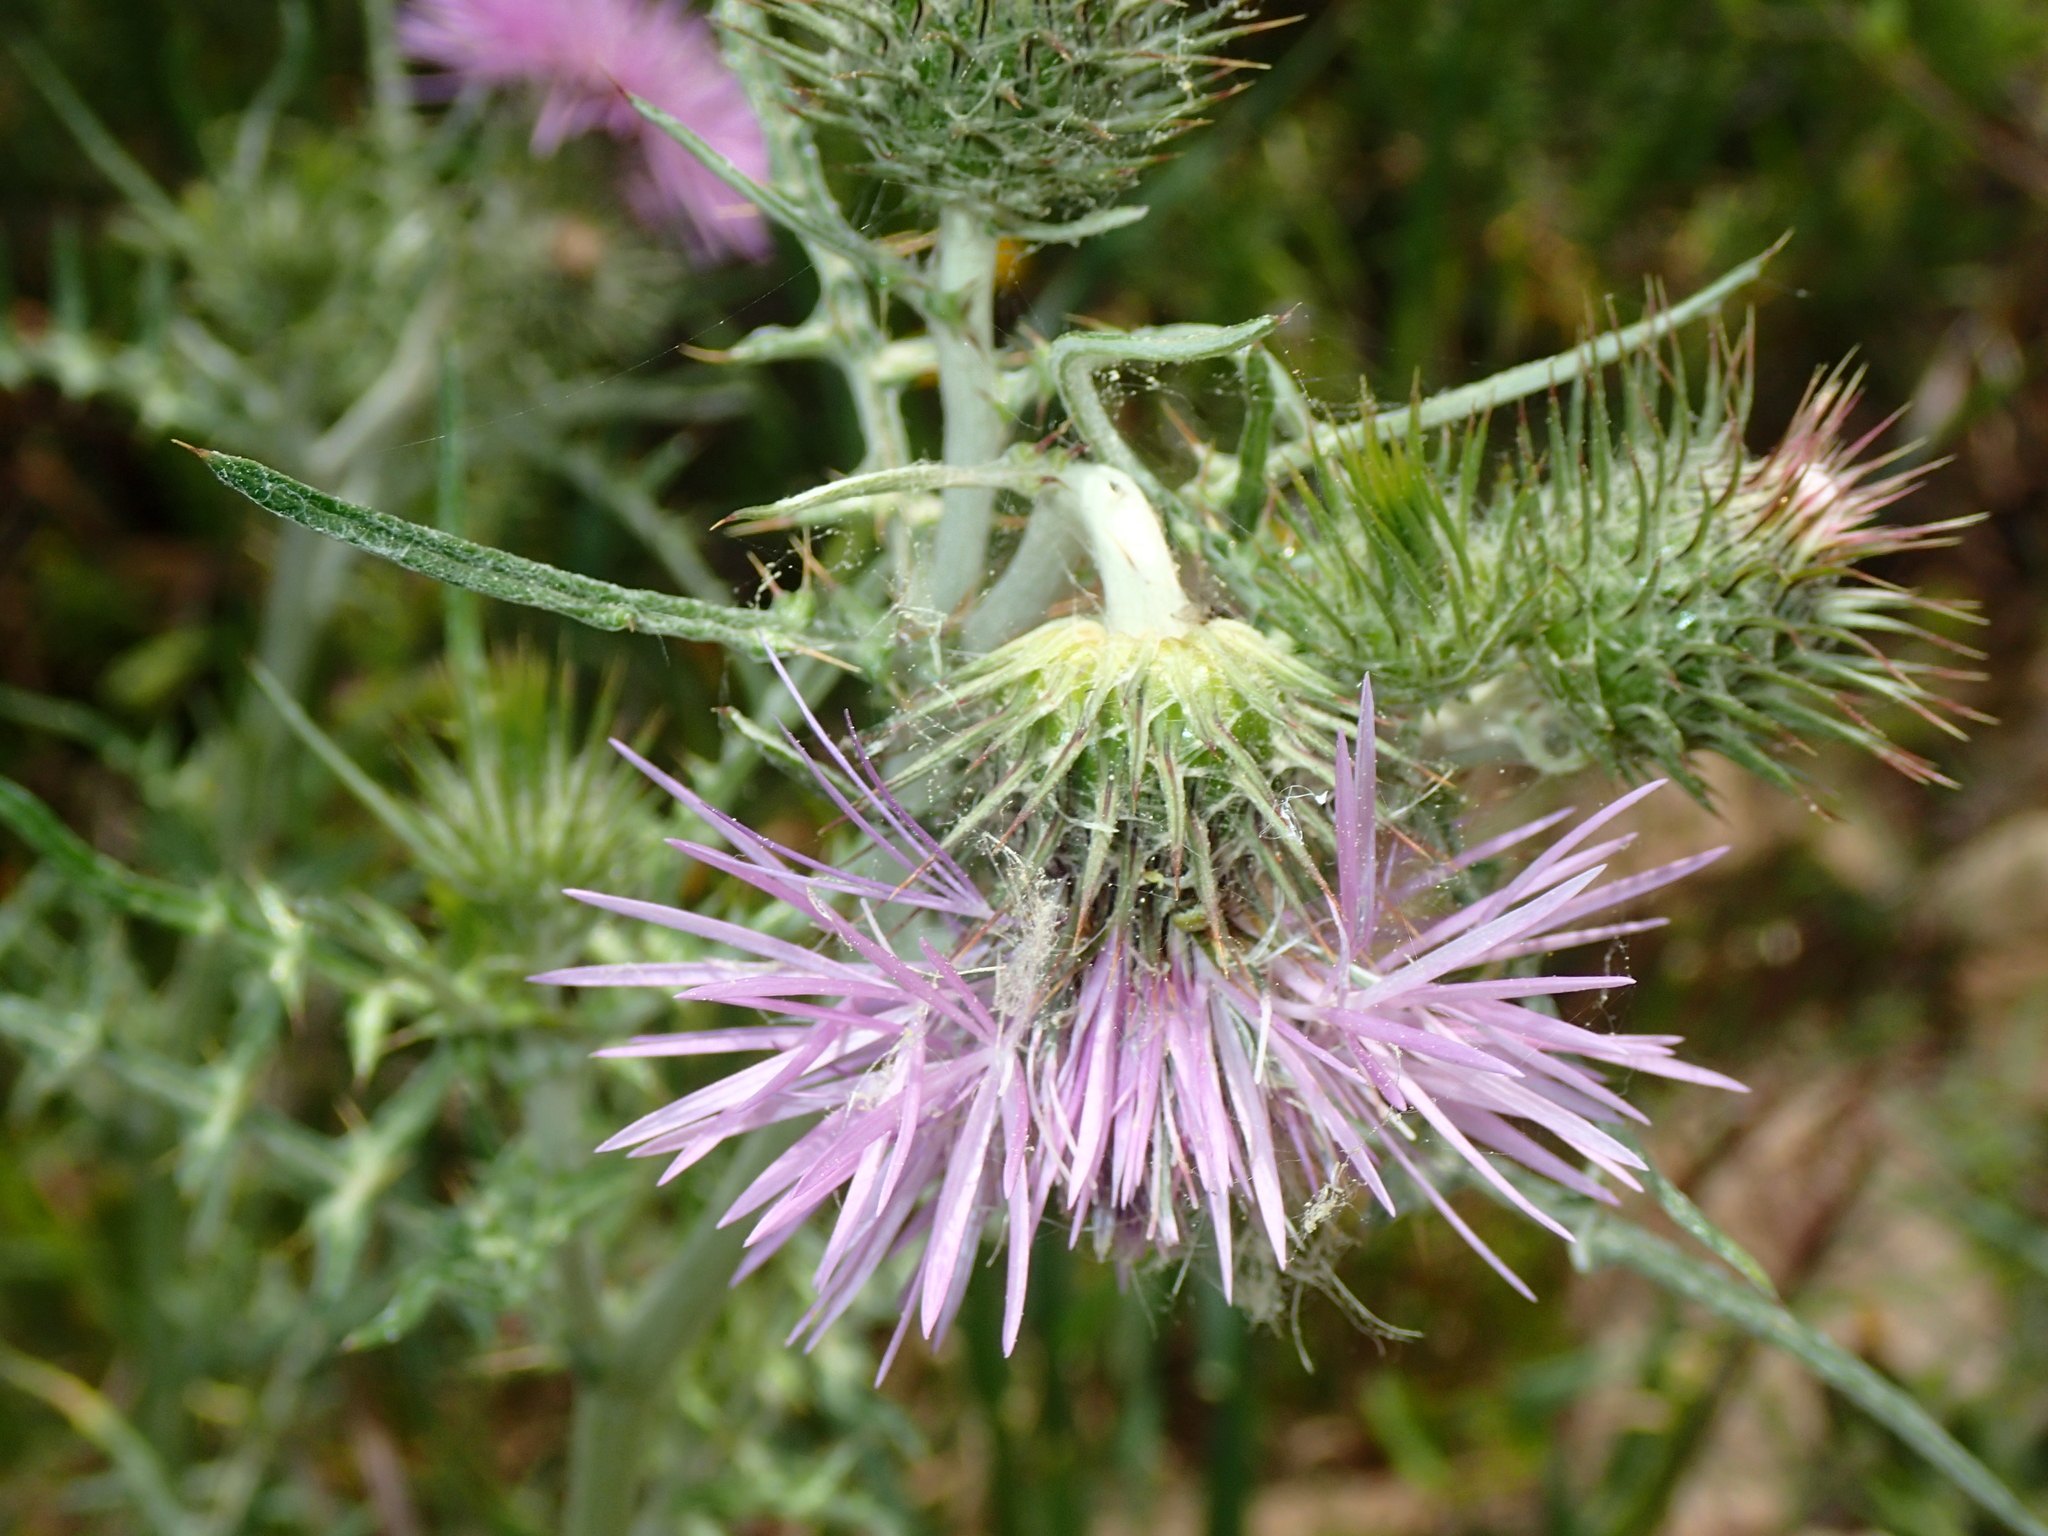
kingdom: Plantae
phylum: Tracheophyta
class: Magnoliopsida
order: Asterales
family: Asteraceae
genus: Galactites
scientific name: Galactites tomentosa
